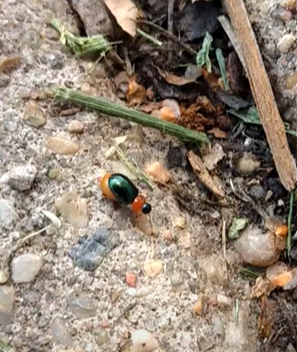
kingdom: Animalia
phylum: Arthropoda
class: Insecta
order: Coleoptera
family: Chrysomelidae
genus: Gastrophysa
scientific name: Gastrophysa polygoni
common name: Knotweed leaf beetle
